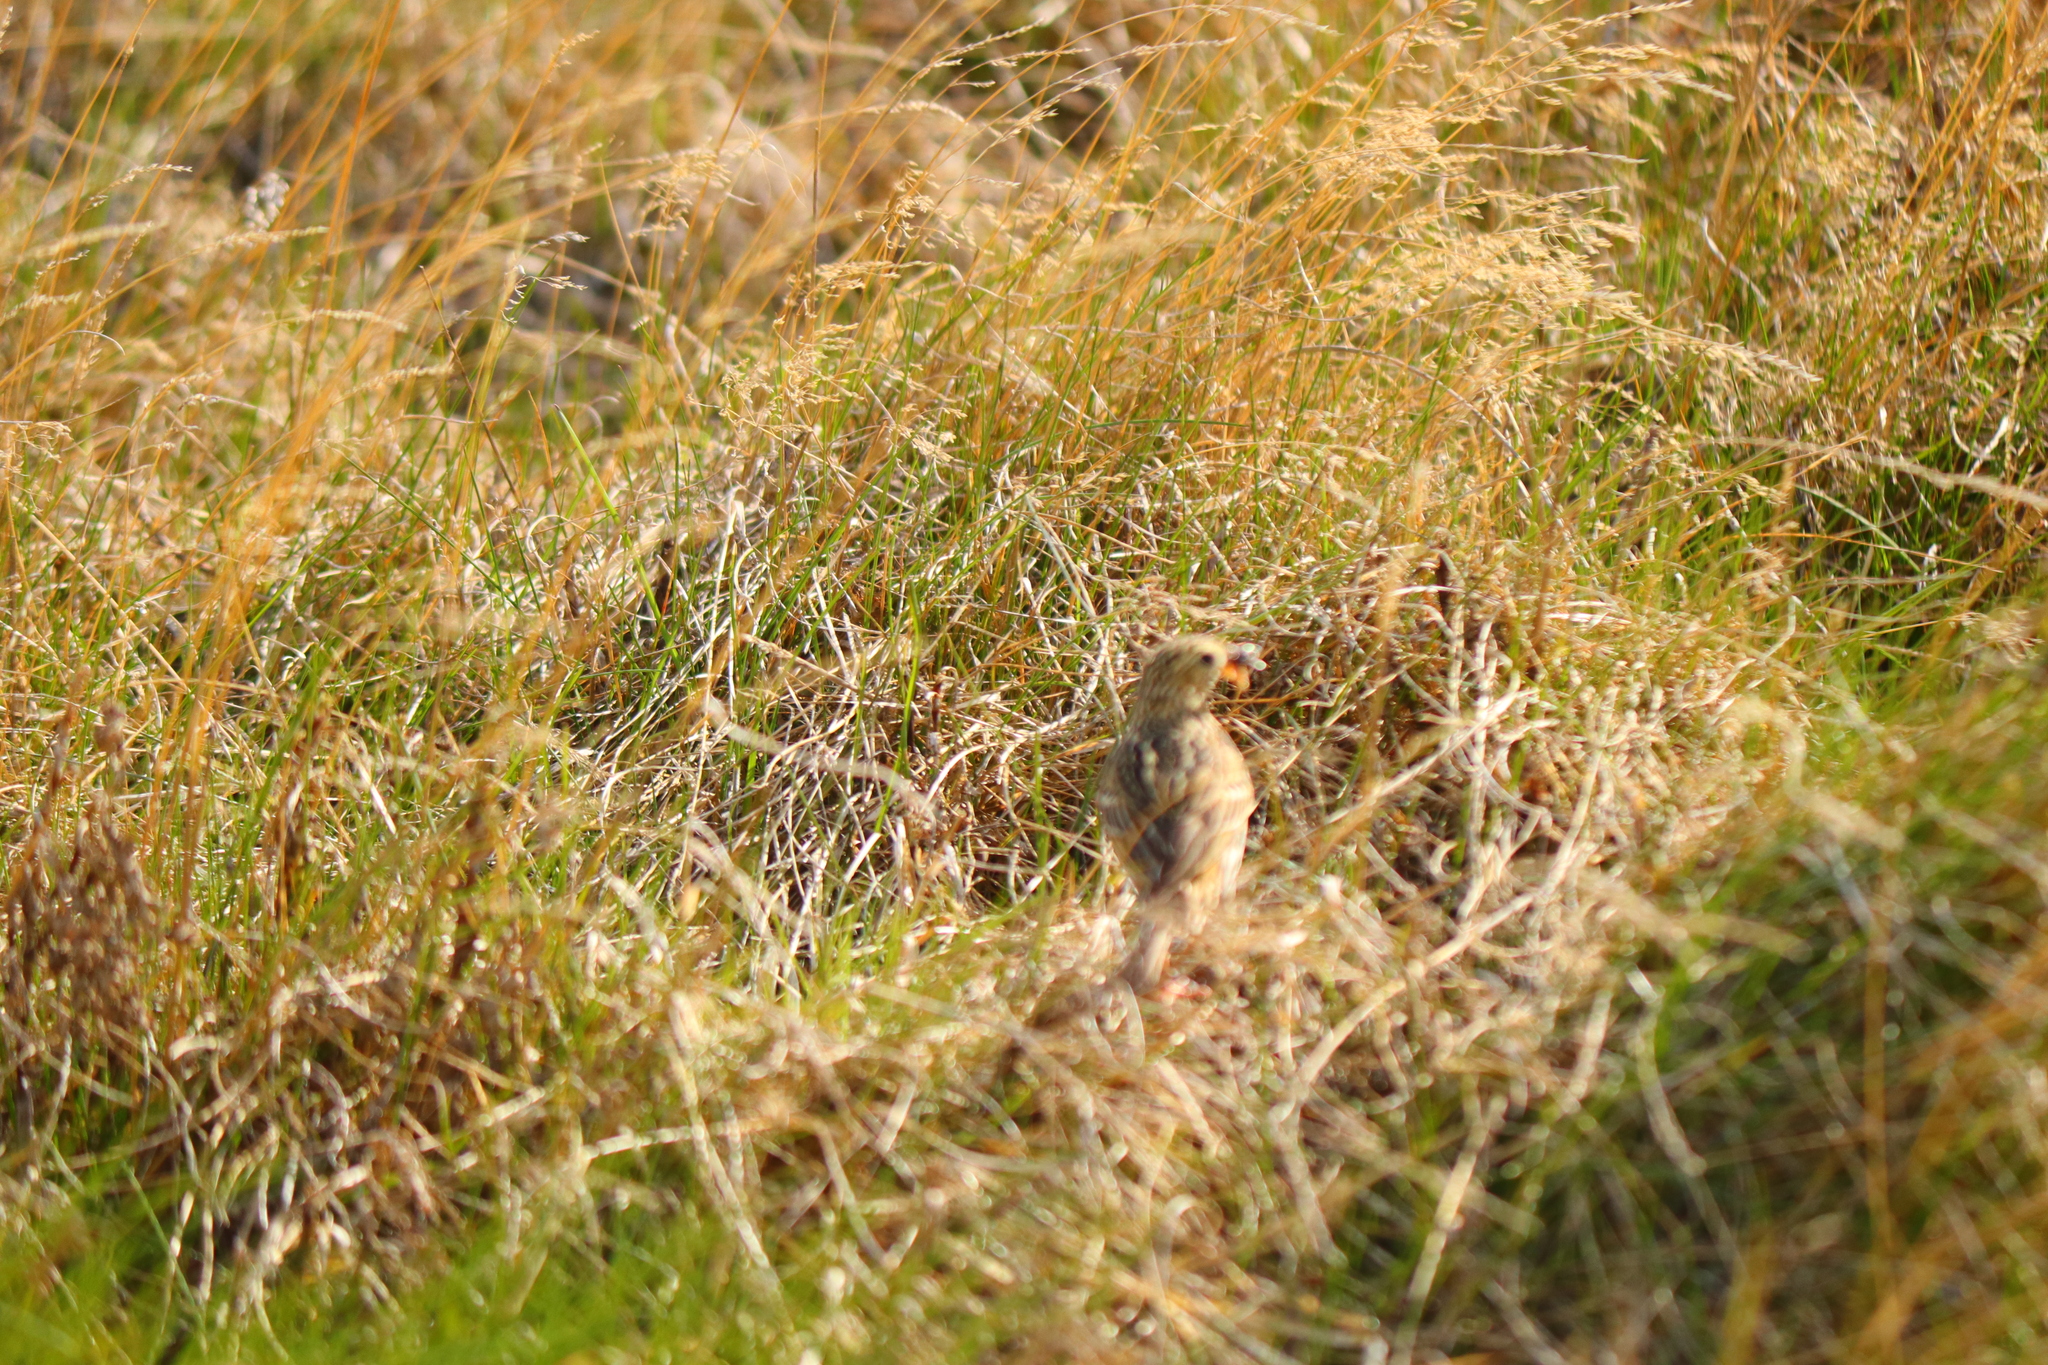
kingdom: Animalia
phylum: Chordata
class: Aves
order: Passeriformes
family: Motacillidae
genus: Anthus
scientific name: Anthus correndera
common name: Correndera pipit
